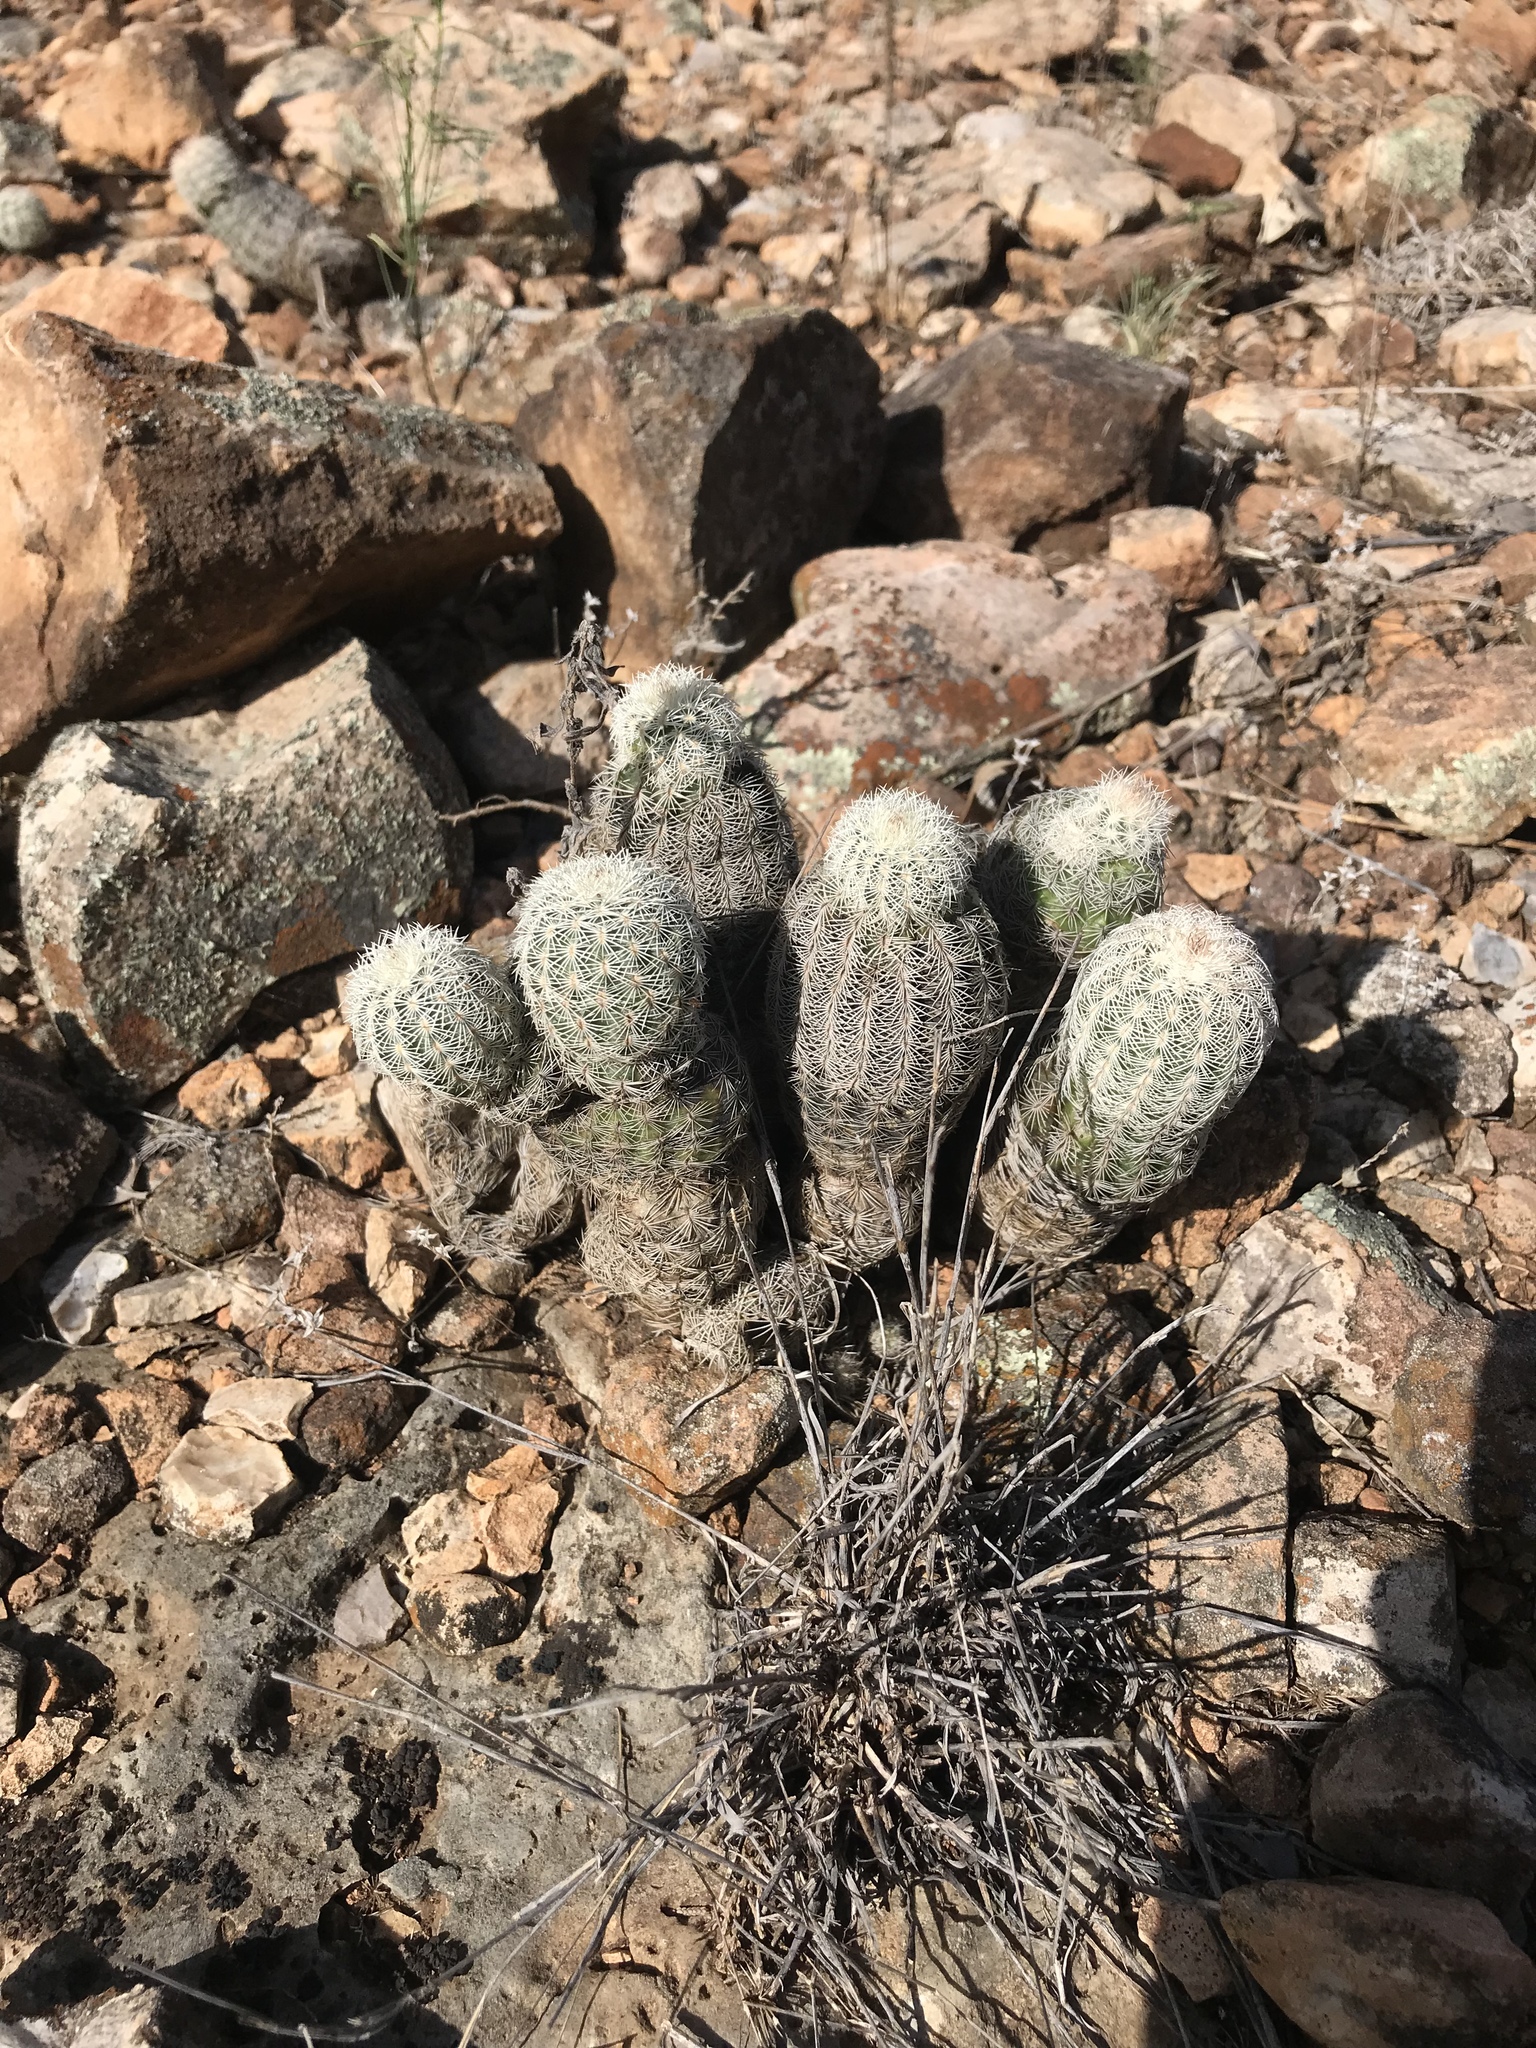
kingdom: Plantae
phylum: Tracheophyta
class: Magnoliopsida
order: Caryophyllales
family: Cactaceae
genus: Echinocereus
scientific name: Echinocereus reichenbachii
